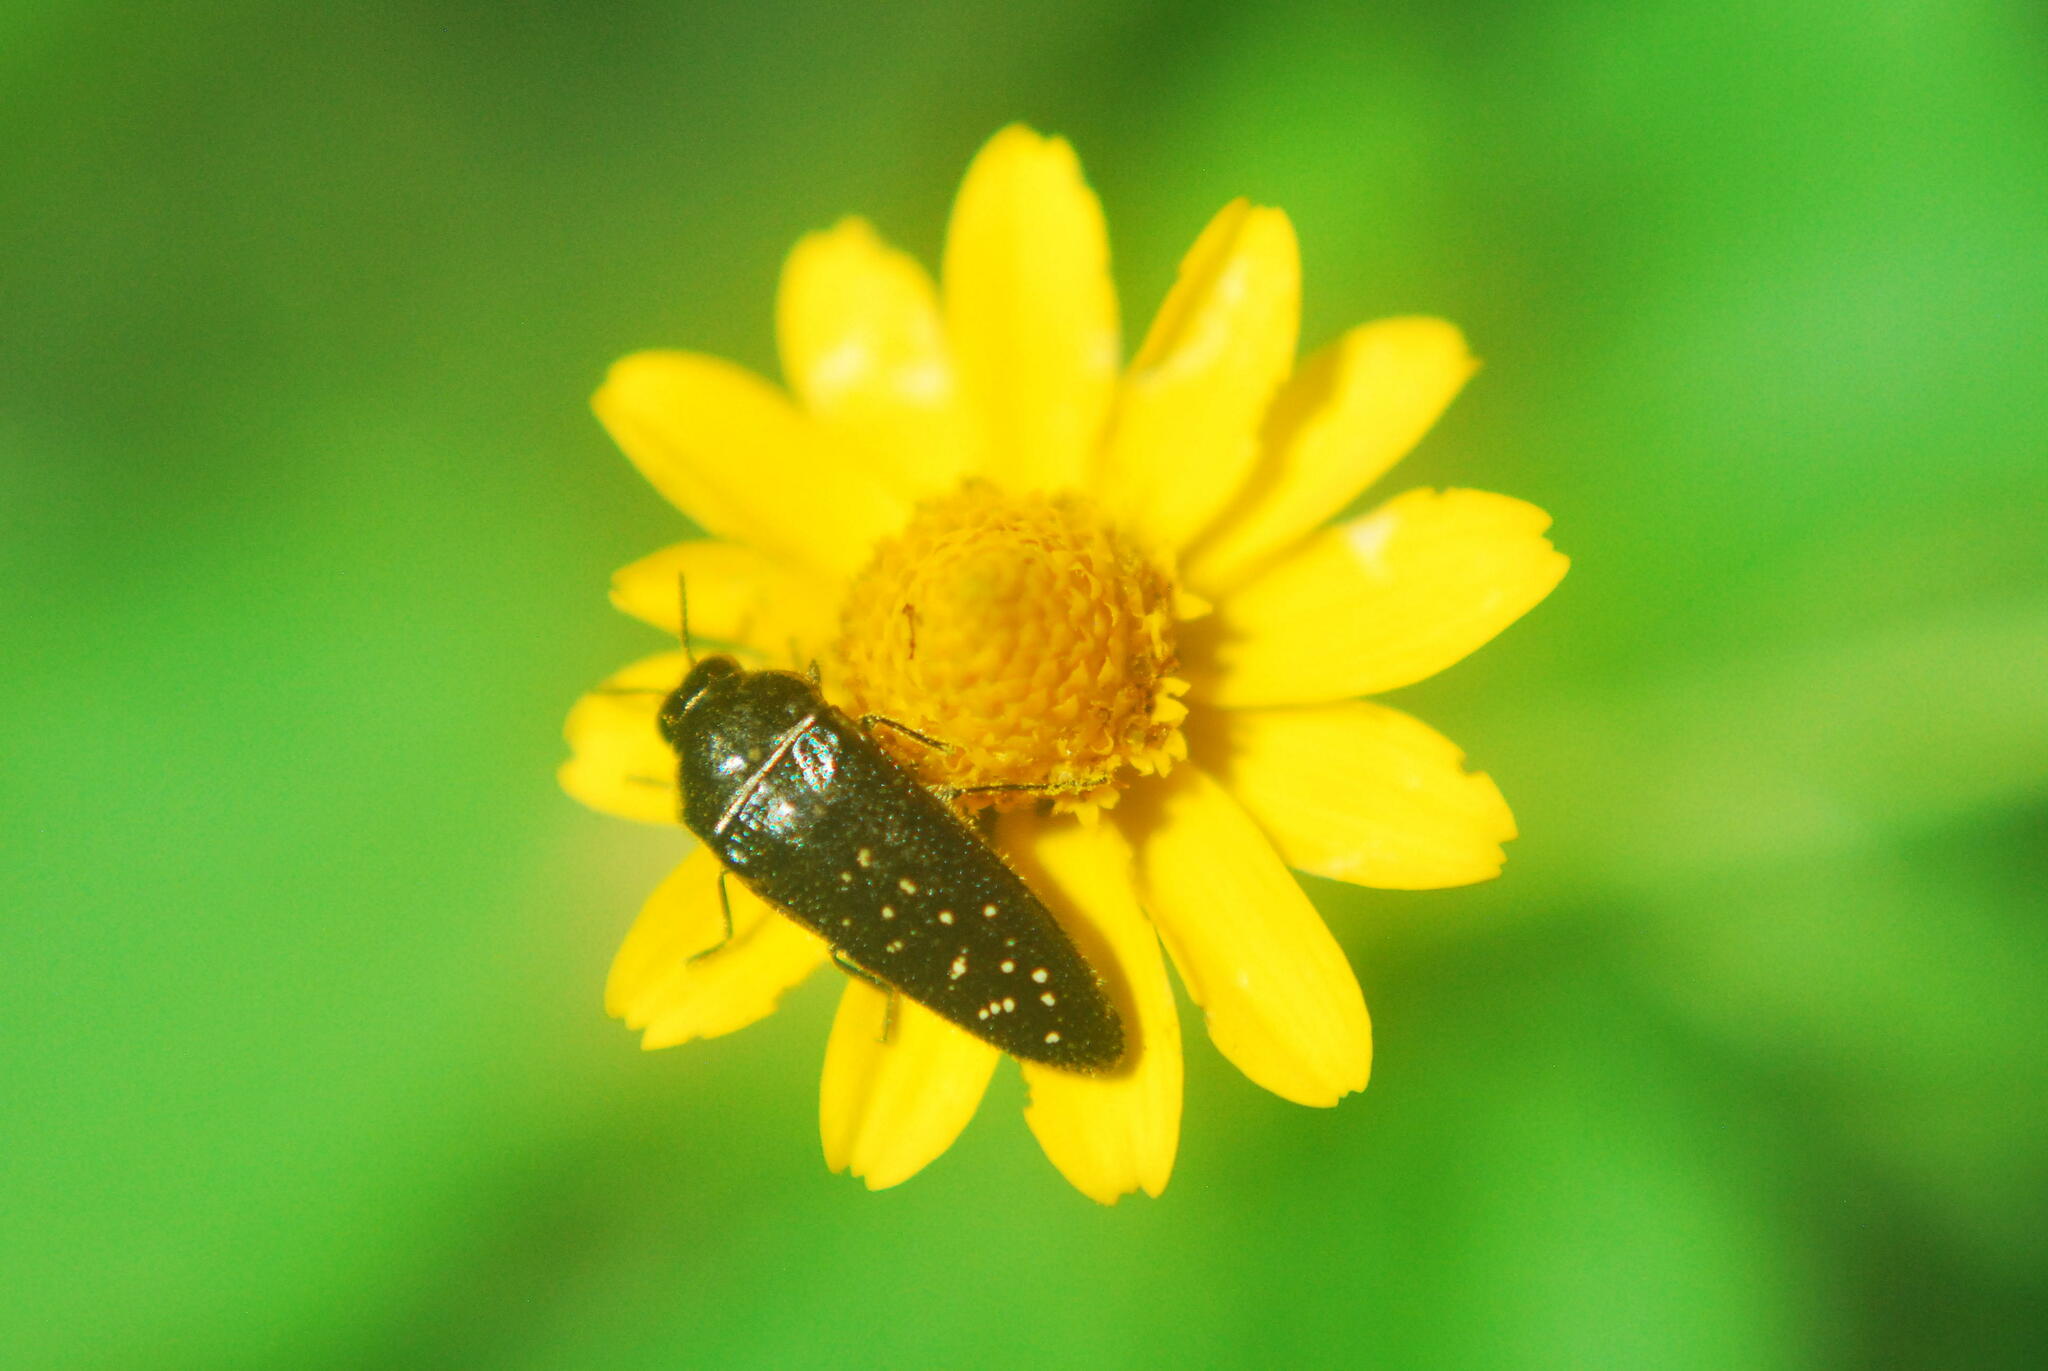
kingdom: Animalia
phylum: Arthropoda
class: Insecta
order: Coleoptera
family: Buprestidae
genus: Acmaeodera
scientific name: Acmaeodera impluviata
